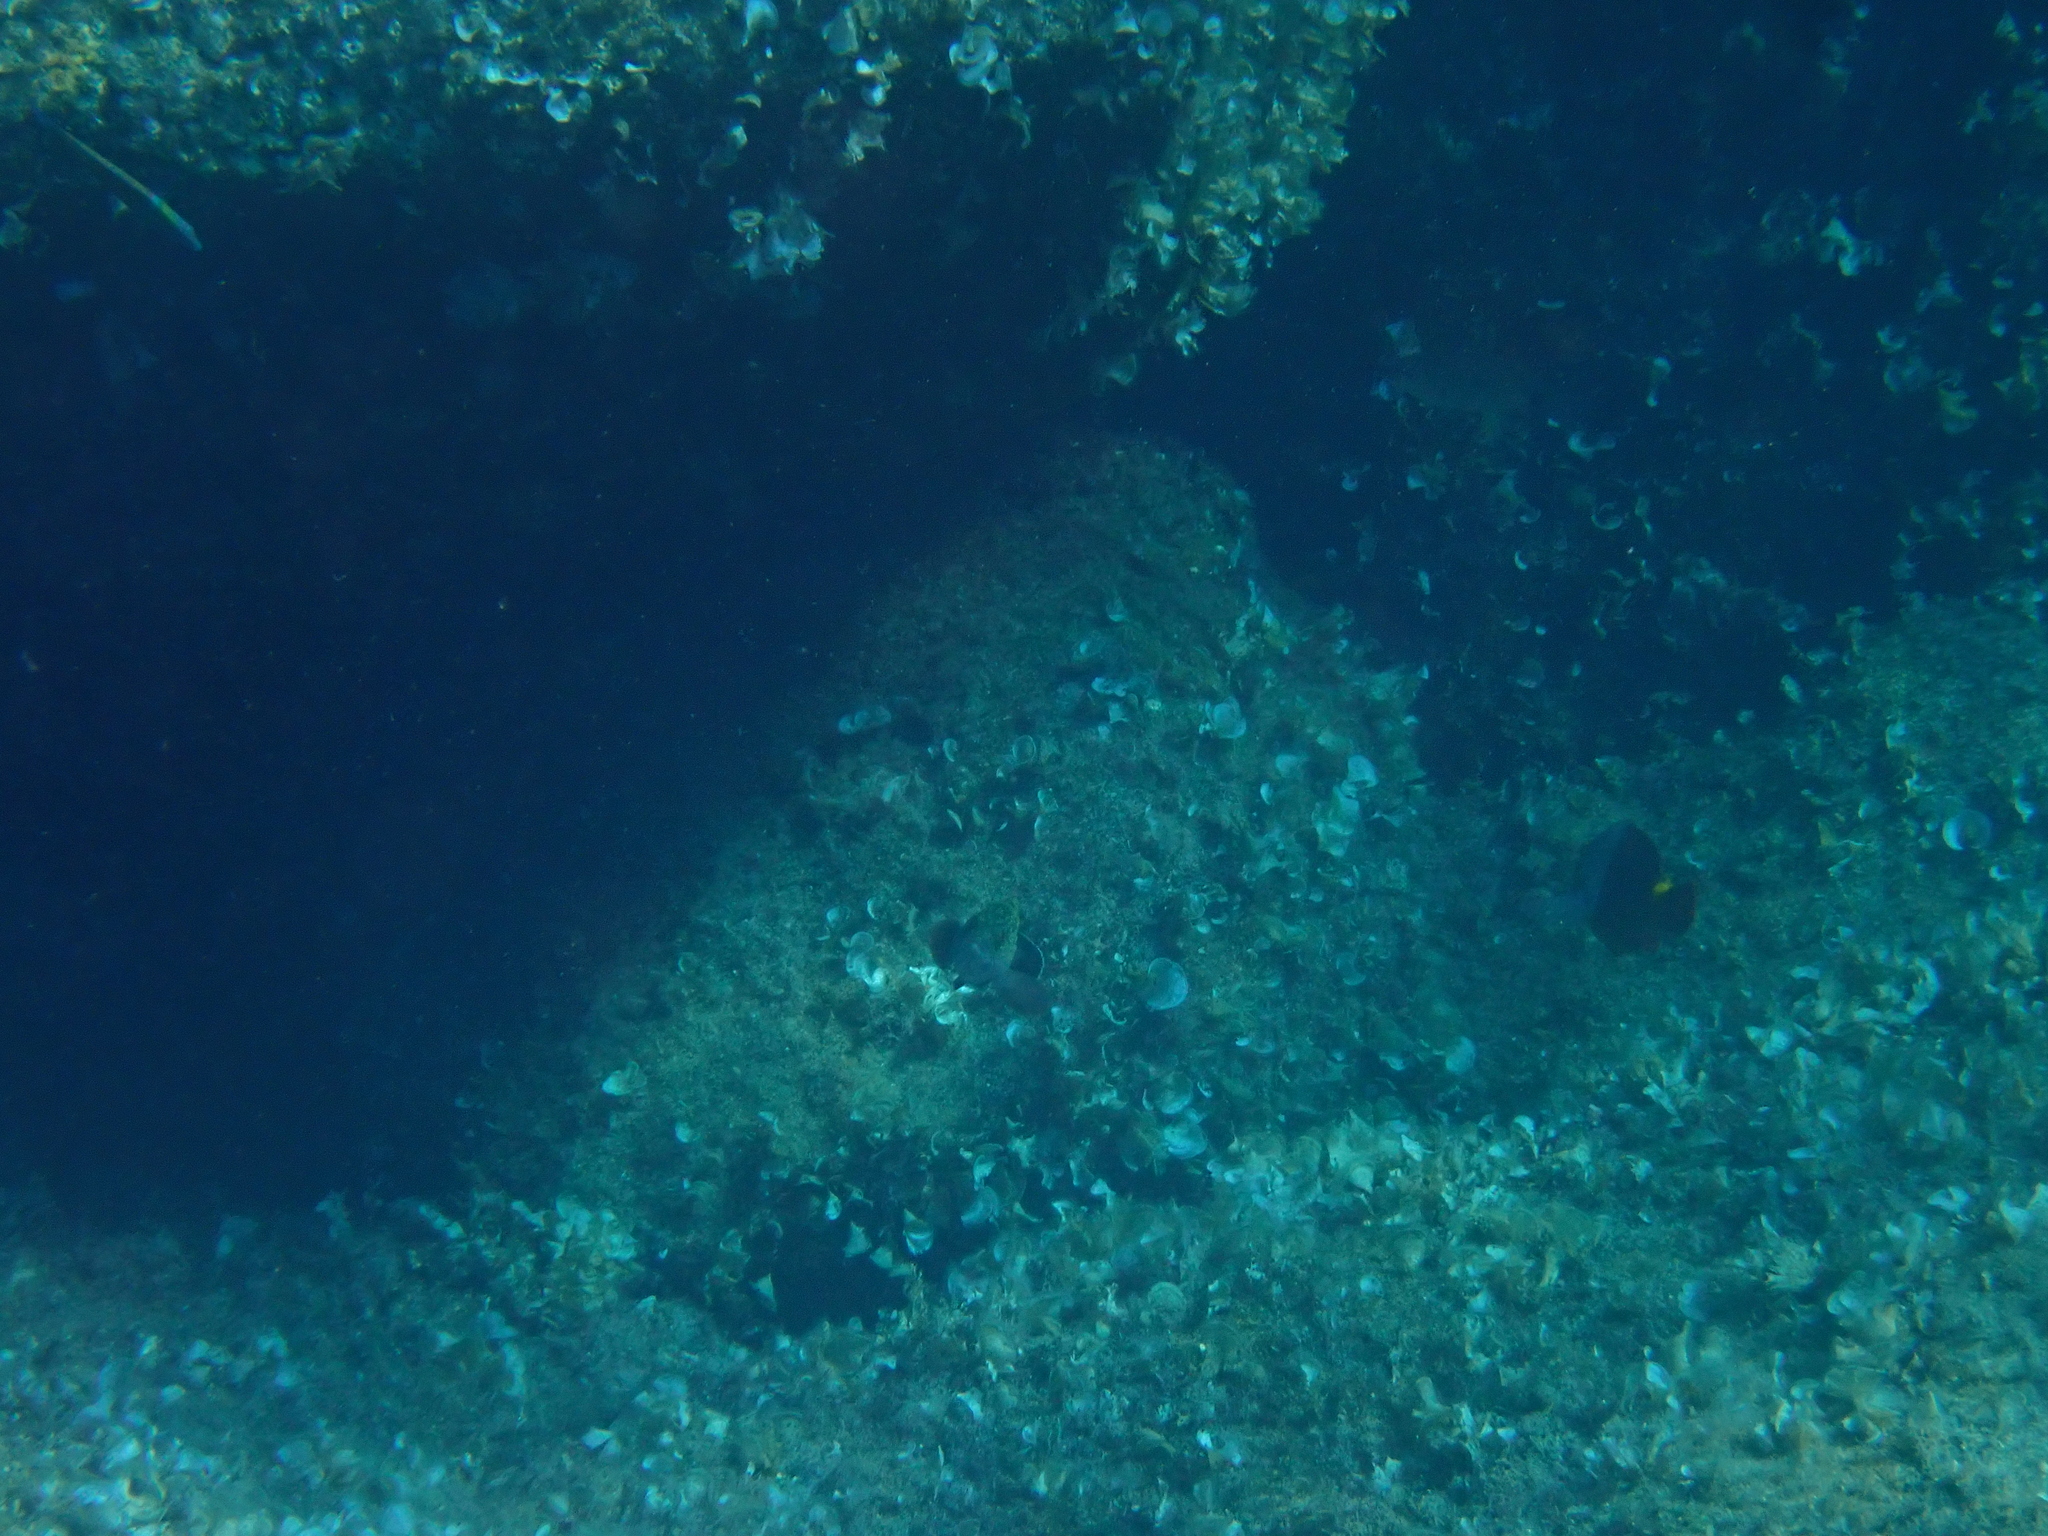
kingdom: Animalia
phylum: Chordata
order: Perciformes
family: Serranidae
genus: Epinephelus
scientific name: Epinephelus marginatus
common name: Dusky grouper
